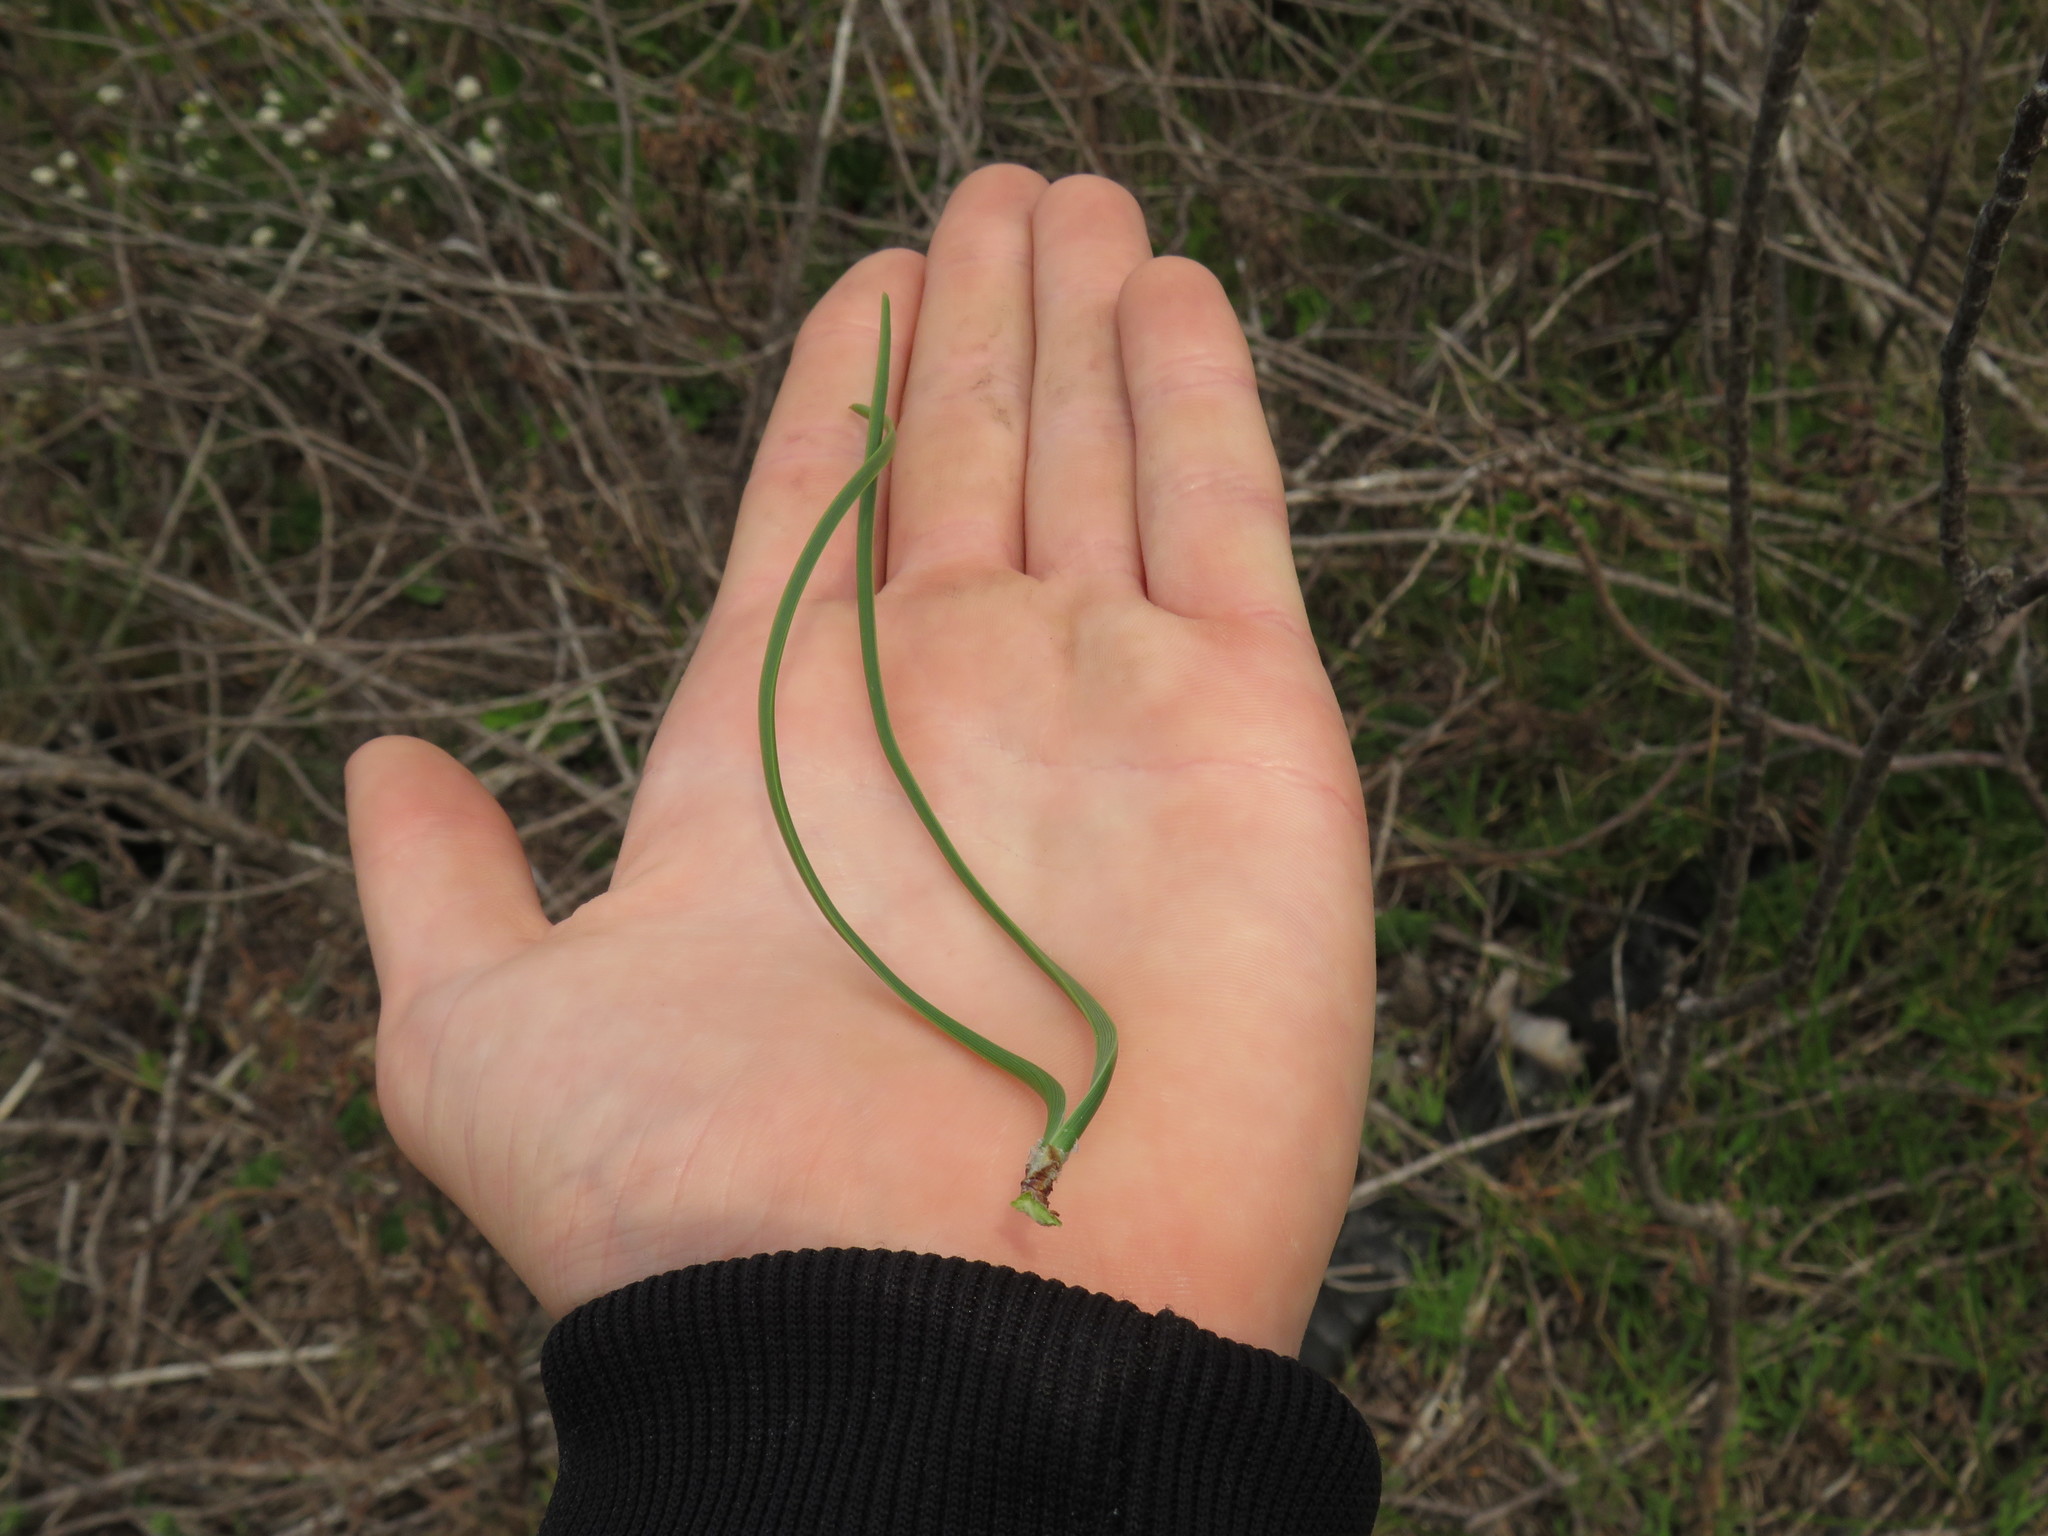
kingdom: Plantae
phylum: Tracheophyta
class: Pinopsida
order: Pinales
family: Pinaceae
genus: Pinus
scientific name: Pinus pinaster
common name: Maritime pine
